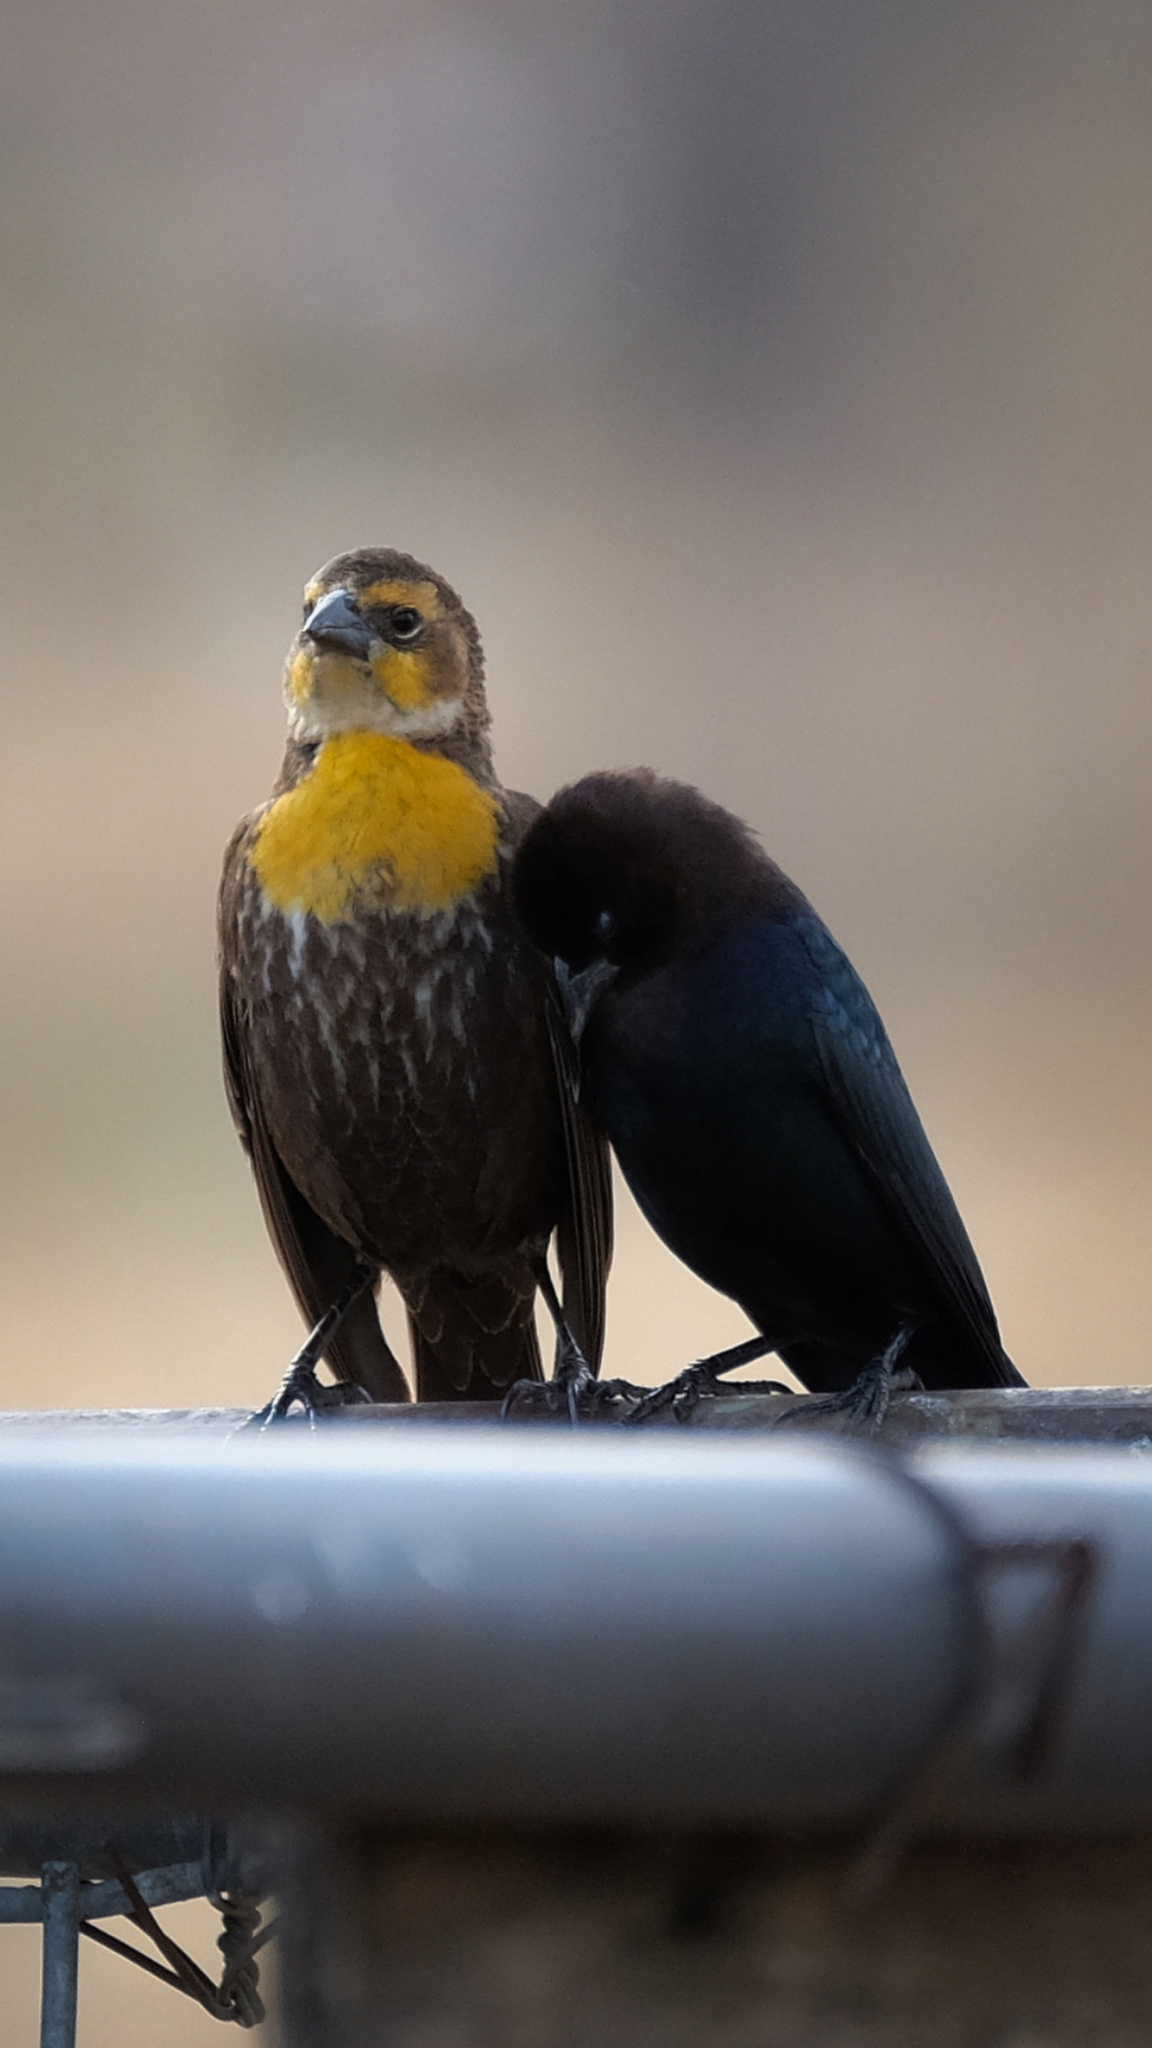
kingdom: Animalia
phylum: Chordata
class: Aves
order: Passeriformes
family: Icteridae
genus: Xanthocephalus
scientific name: Xanthocephalus xanthocephalus
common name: Yellow-headed blackbird
